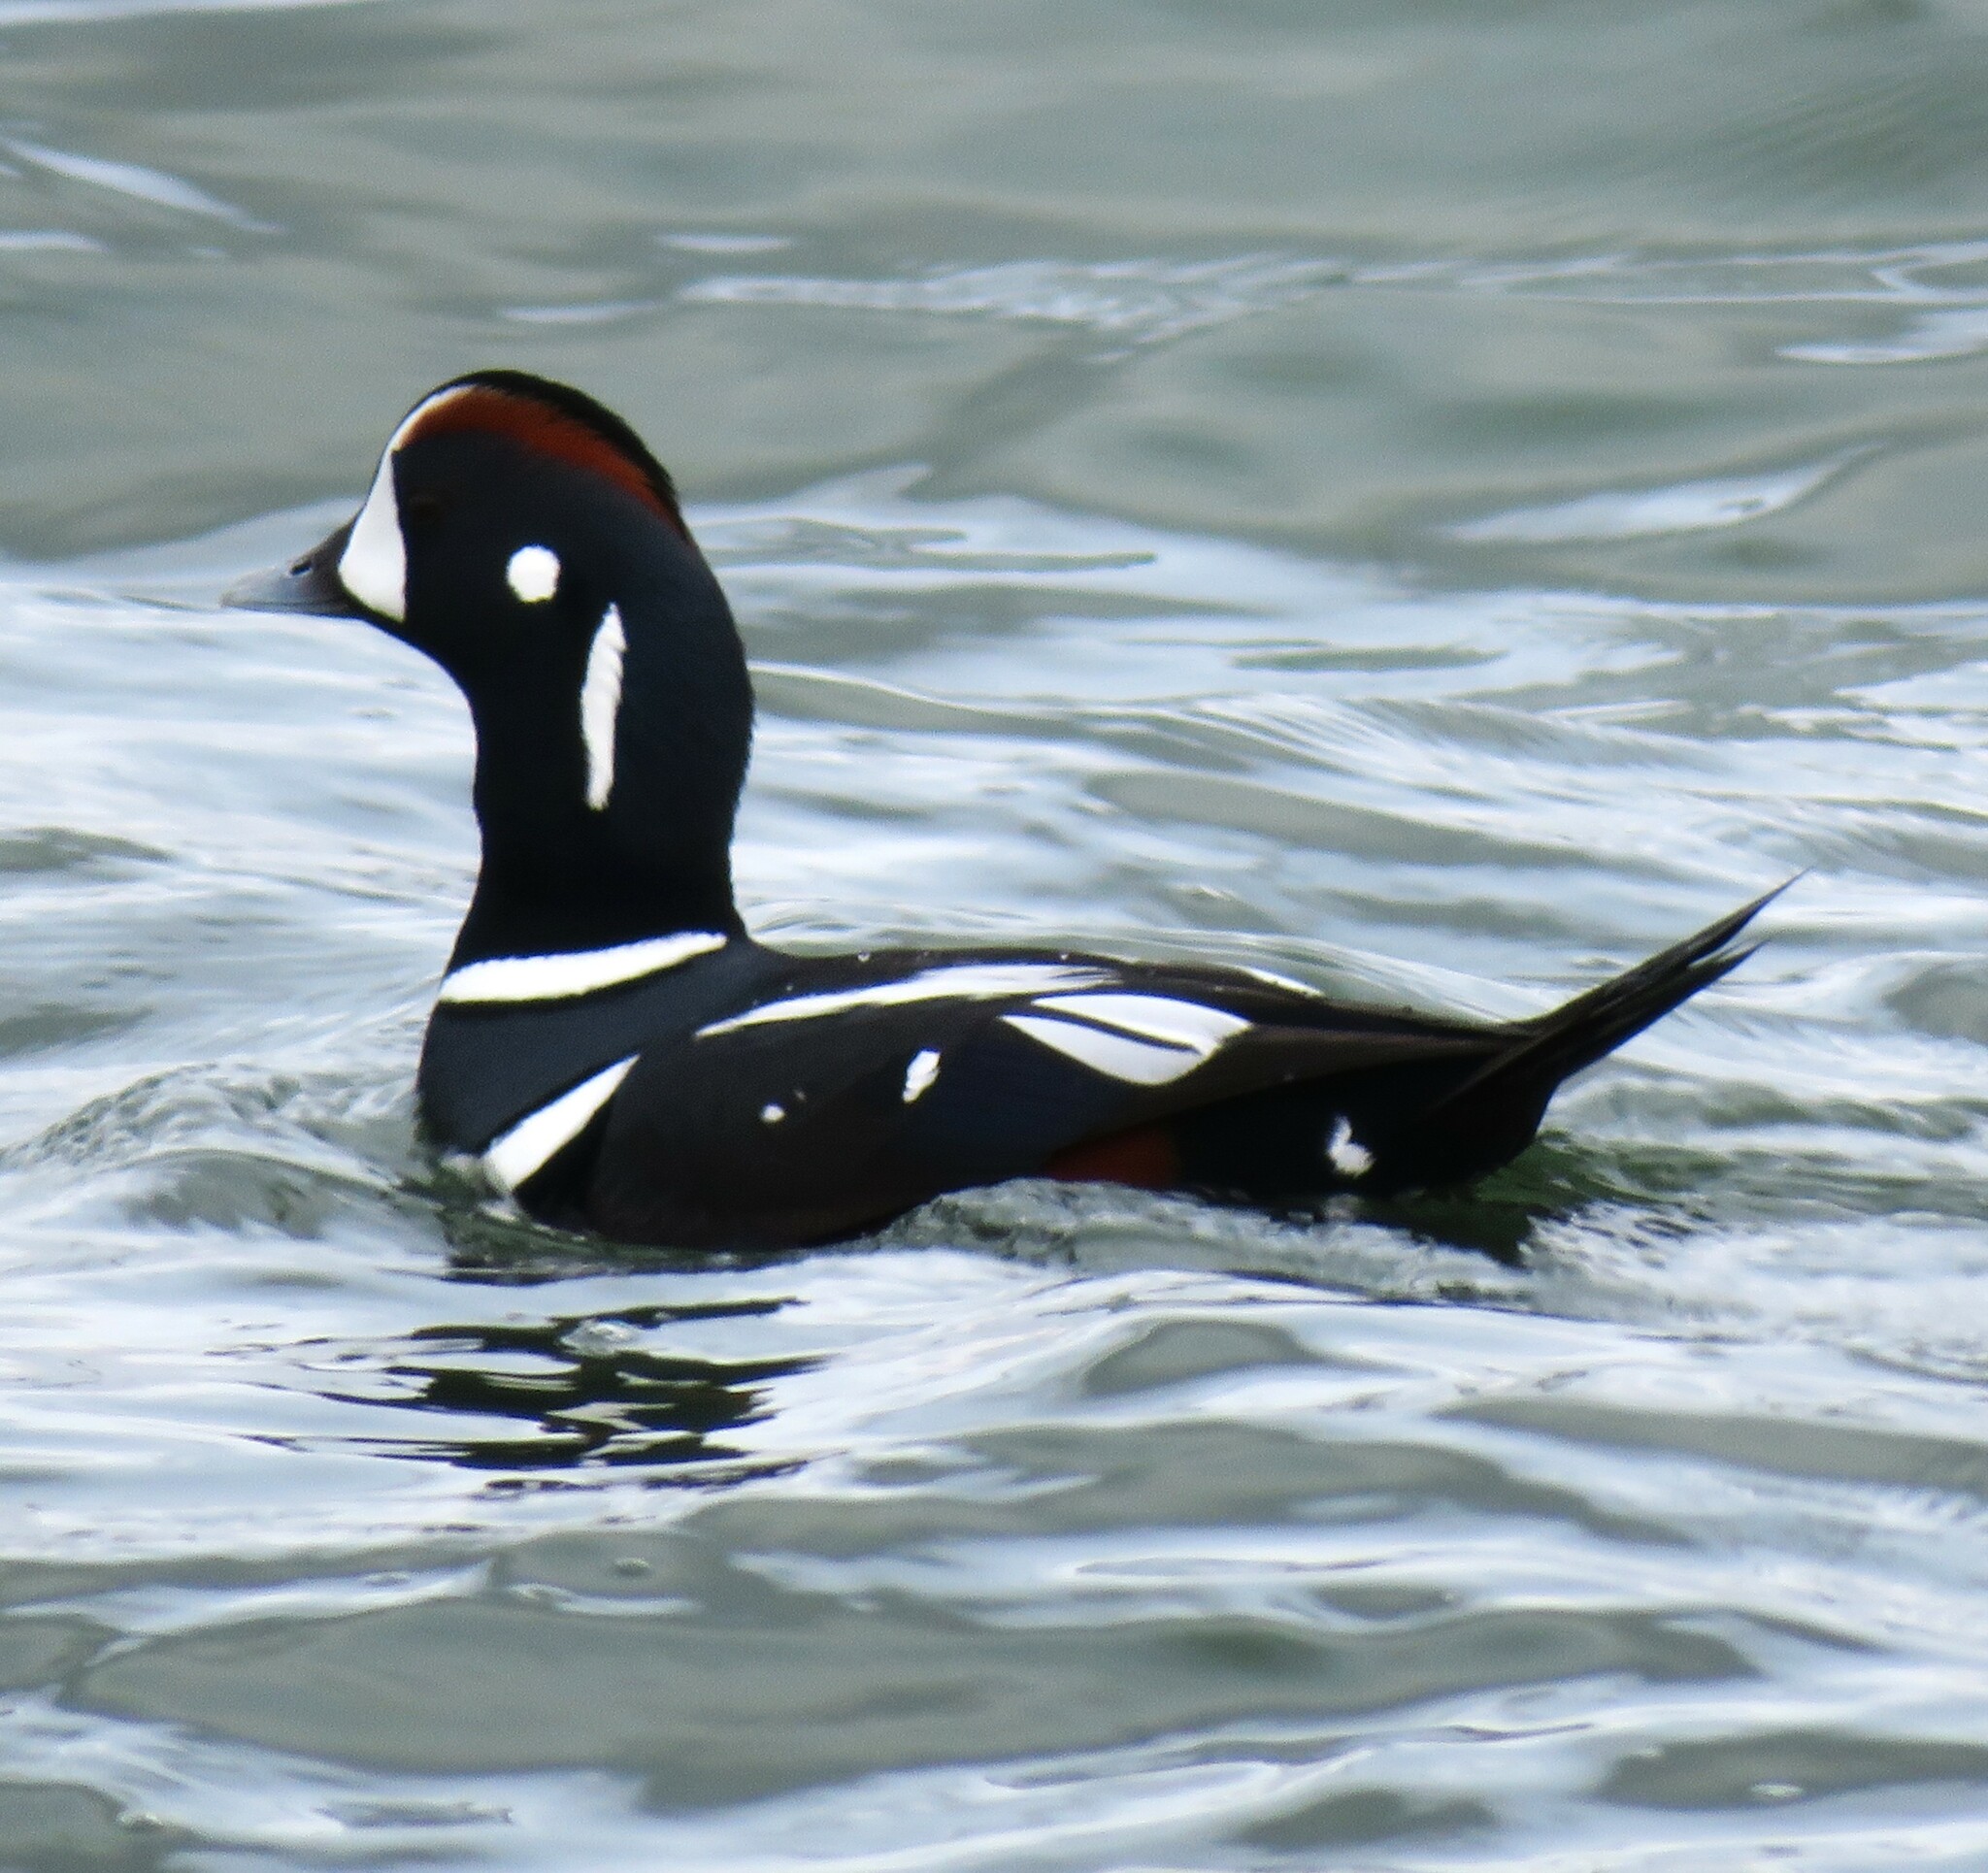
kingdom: Animalia
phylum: Chordata
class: Aves
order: Anseriformes
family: Anatidae
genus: Histrionicus
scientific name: Histrionicus histrionicus
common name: Harlequin duck
